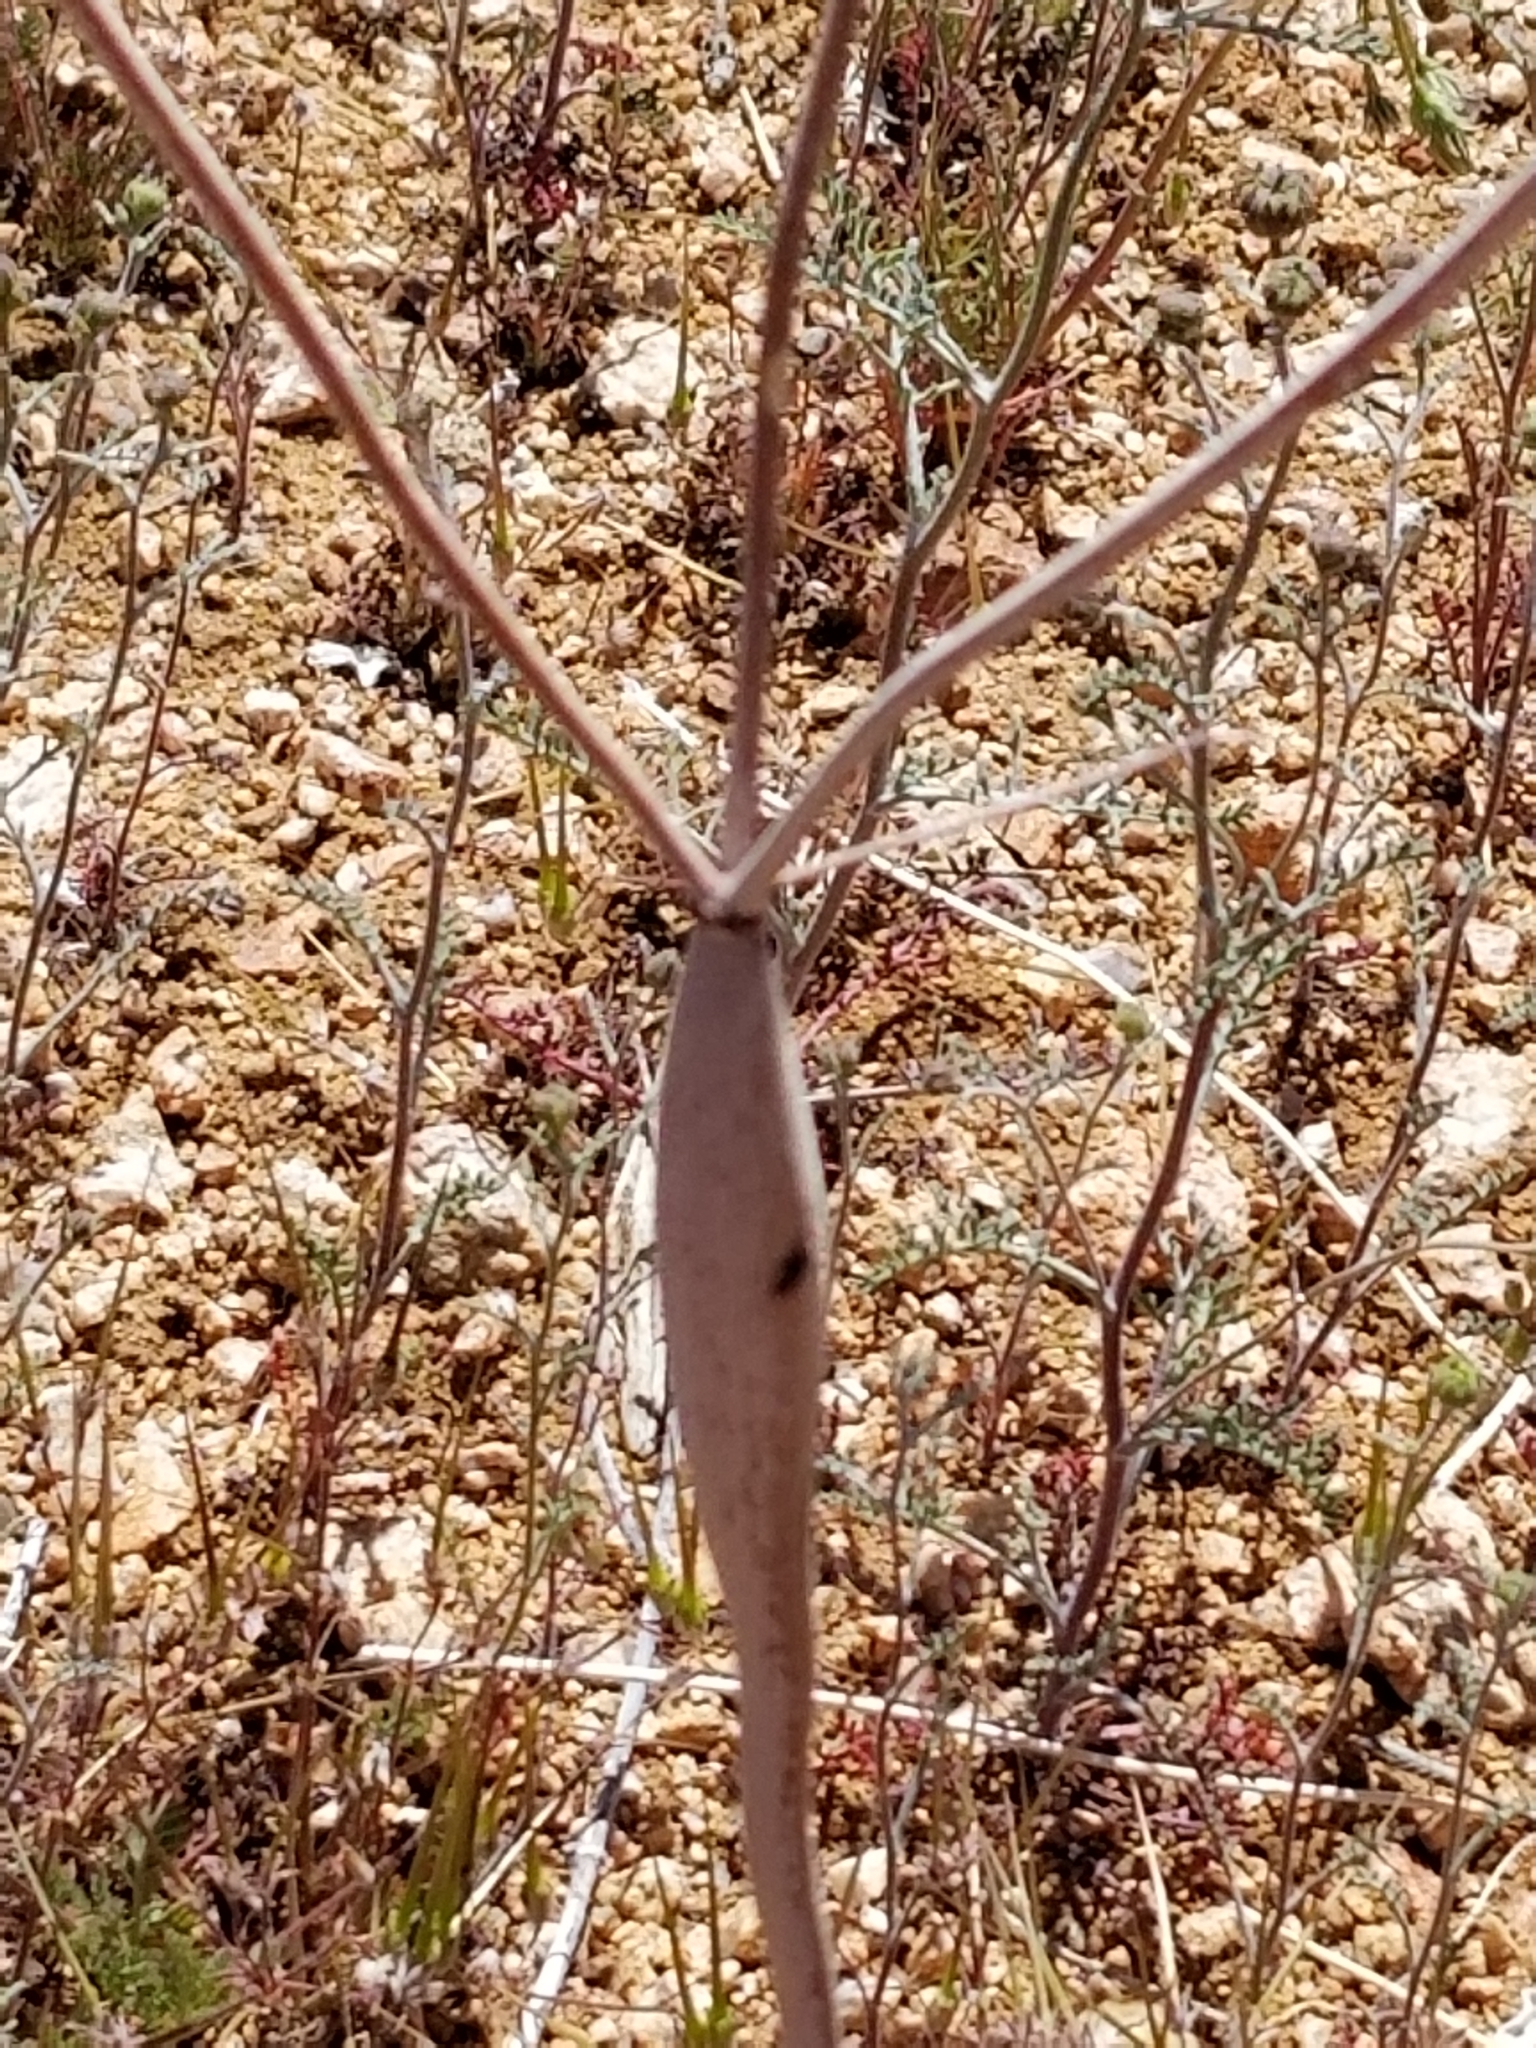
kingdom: Plantae
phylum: Tracheophyta
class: Magnoliopsida
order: Caryophyllales
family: Polygonaceae
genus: Eriogonum
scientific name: Eriogonum inflatum
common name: Desert trumpet
